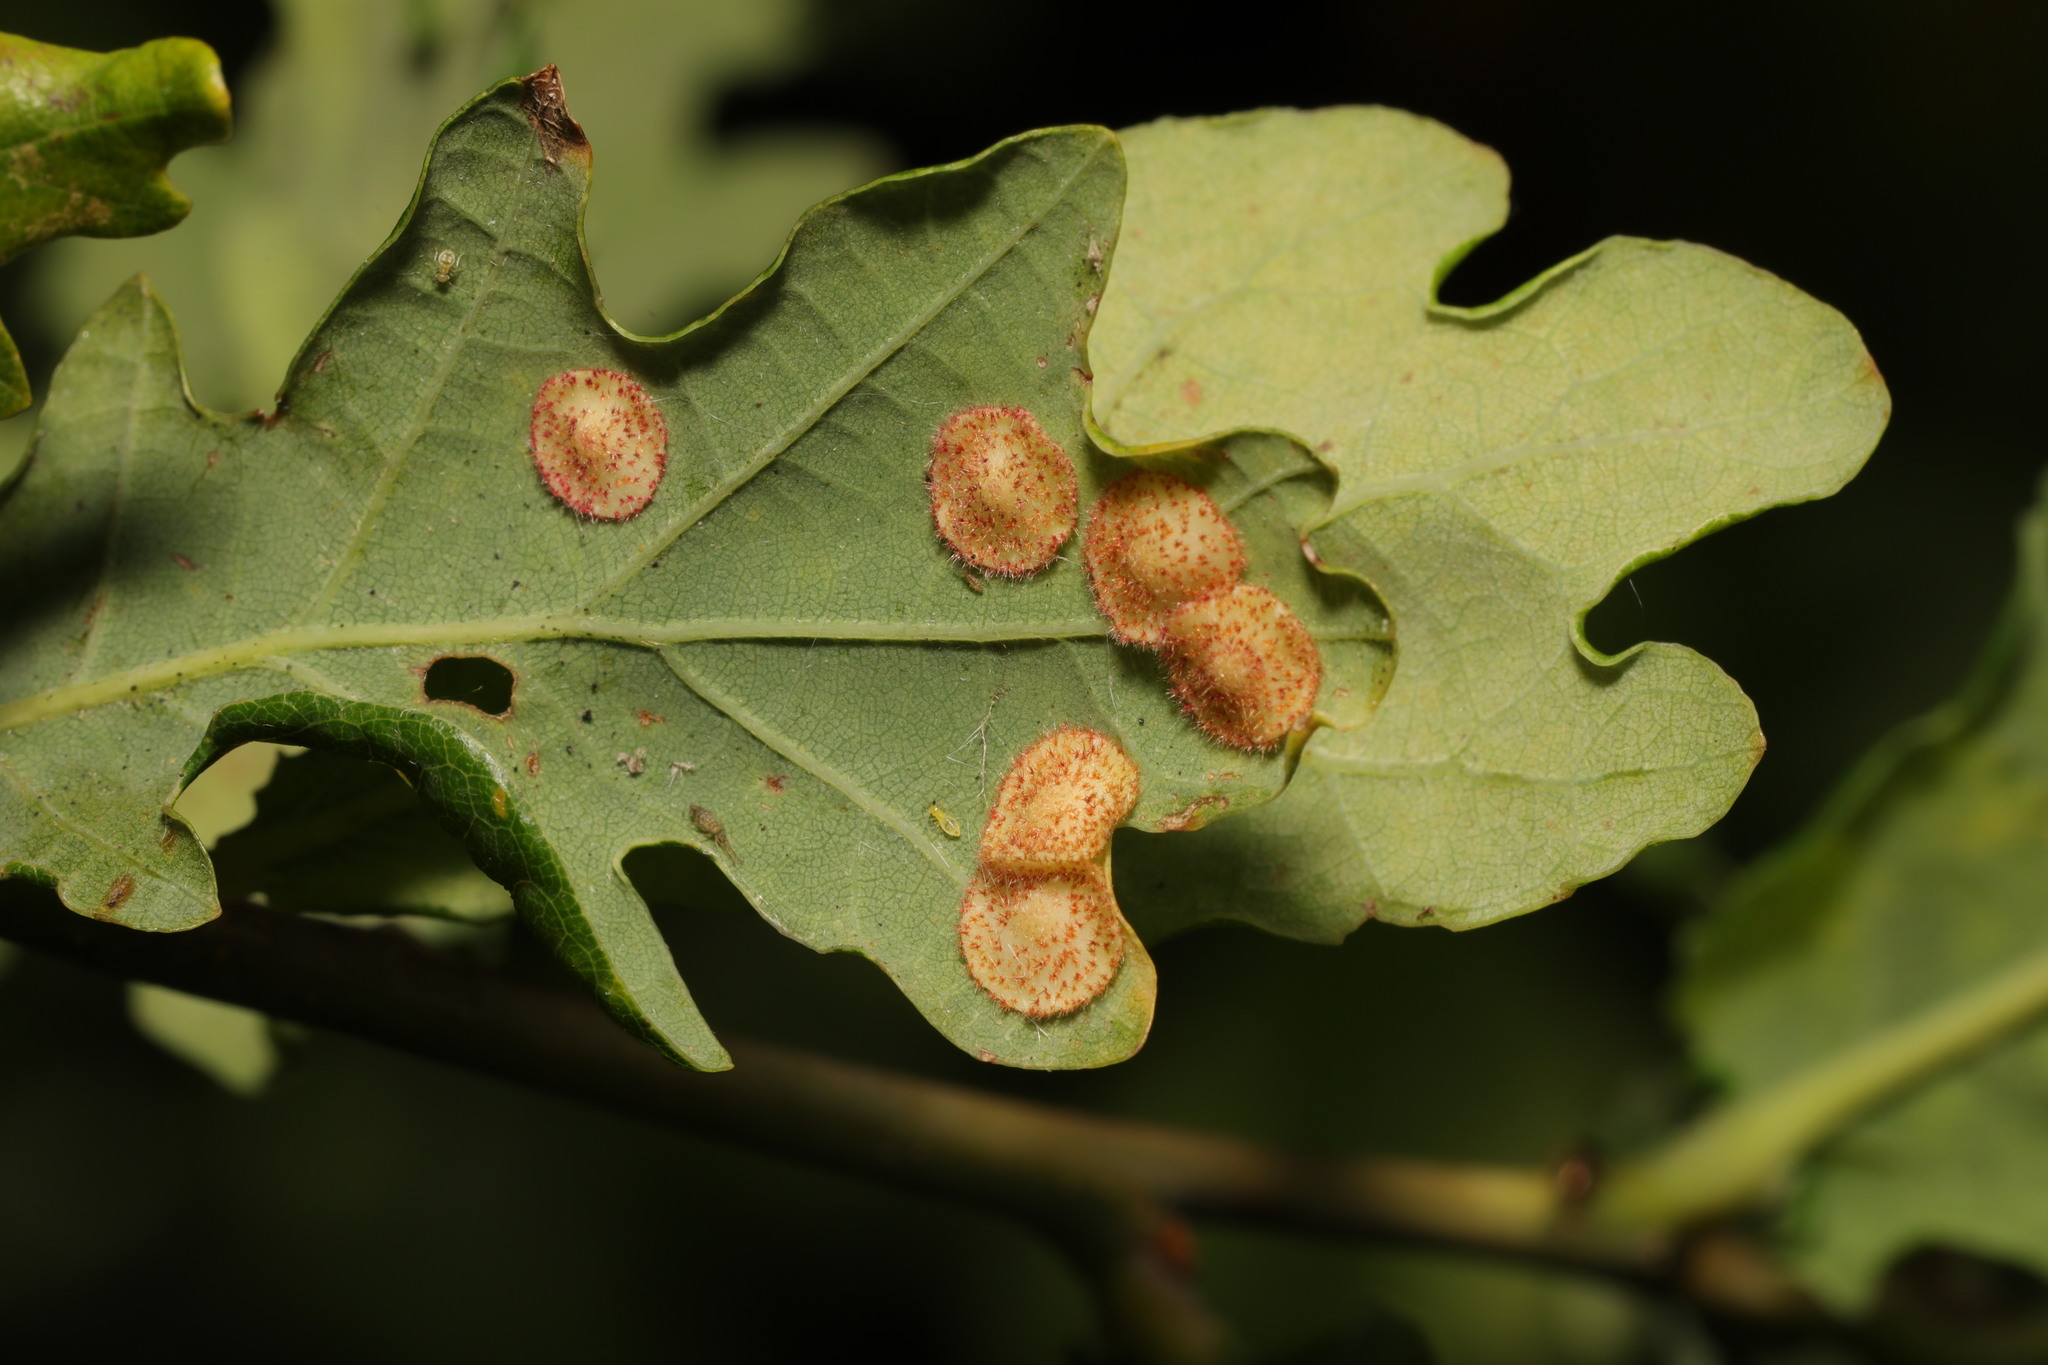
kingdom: Animalia
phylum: Arthropoda
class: Insecta
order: Hymenoptera
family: Cynipidae
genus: Neuroterus
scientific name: Neuroterus quercusbaccarum
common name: Common spangle gall
